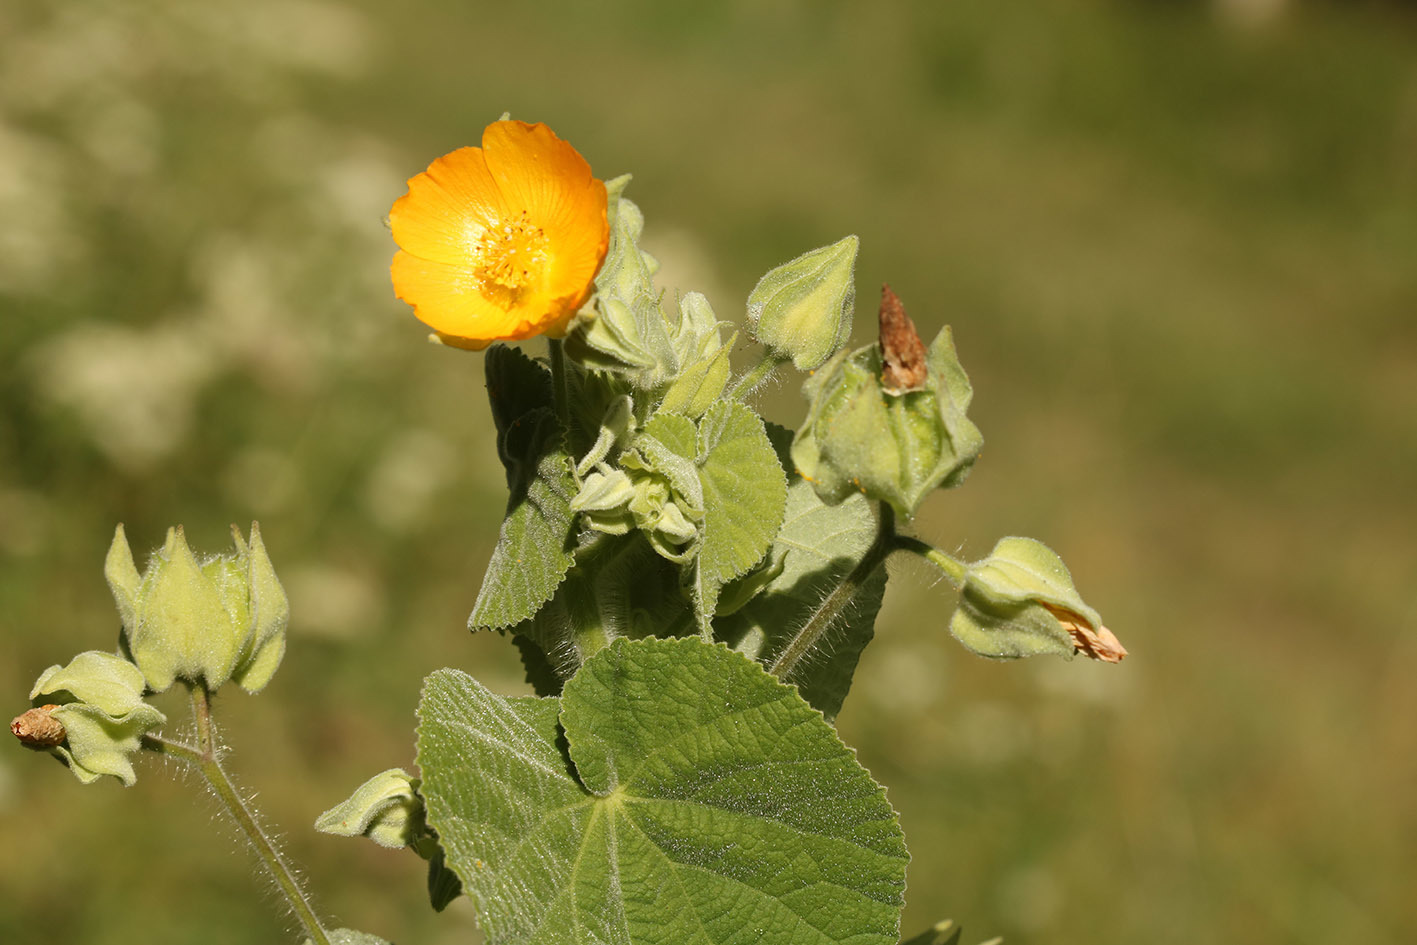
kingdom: Plantae
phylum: Tracheophyta
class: Magnoliopsida
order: Malvales
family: Malvaceae
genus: Abutilon
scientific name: Abutilon grandifolium
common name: Hairy abutilon
